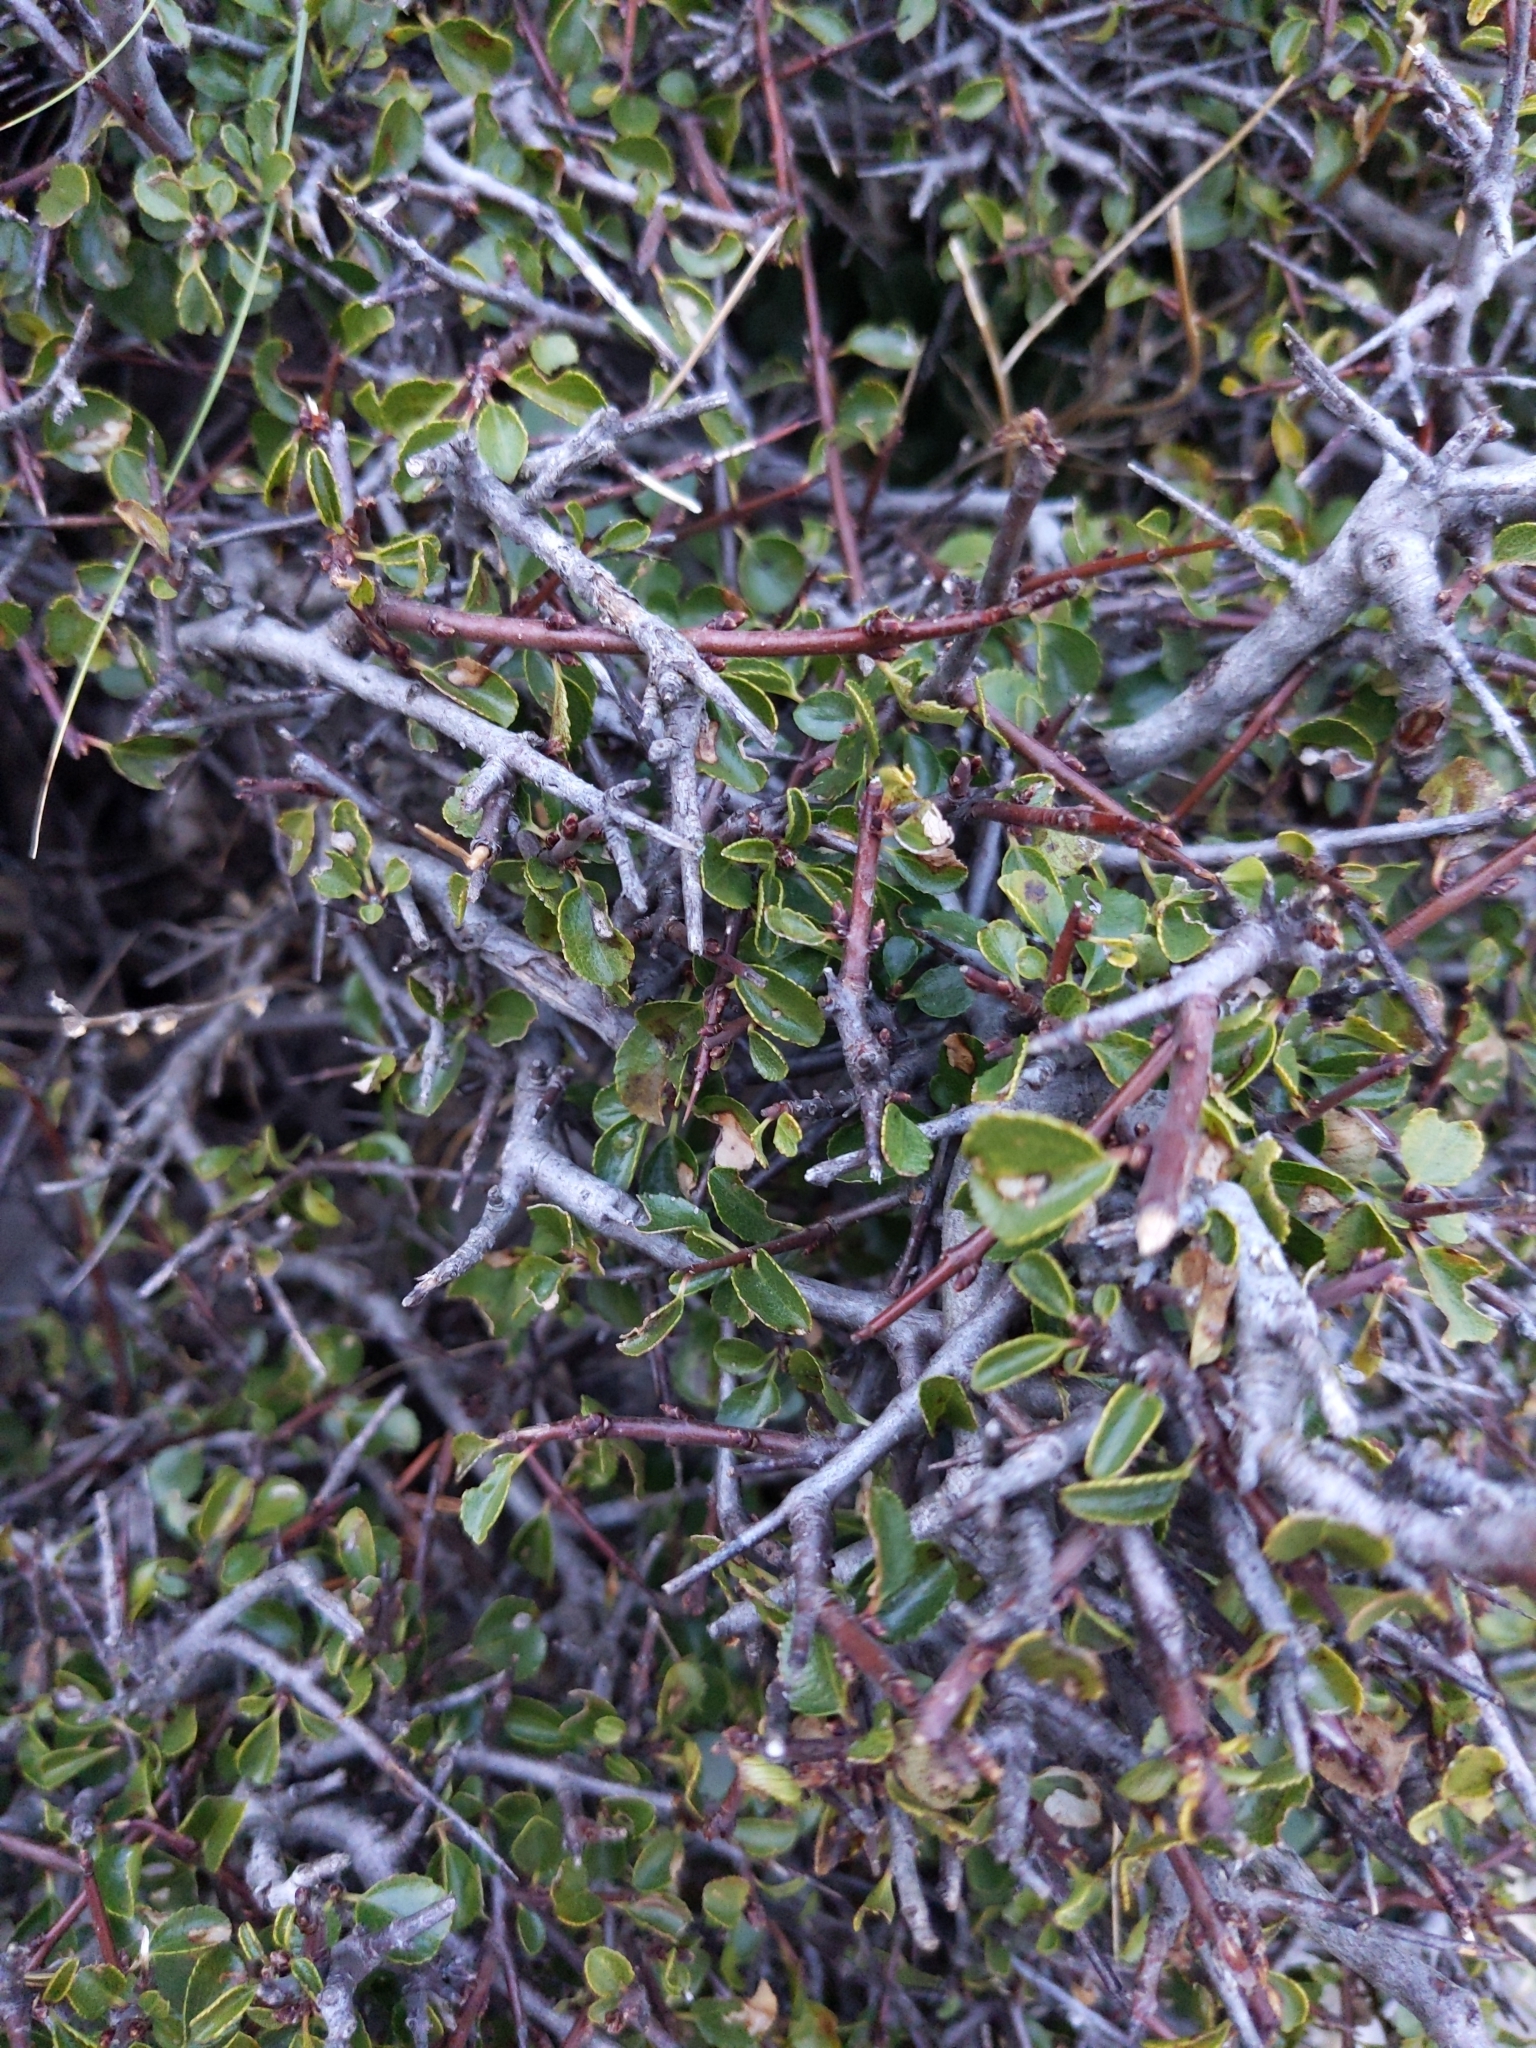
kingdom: Plantae
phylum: Tracheophyta
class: Magnoliopsida
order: Rosales
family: Rhamnaceae
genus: Rhamnus
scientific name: Rhamnus intermedia
